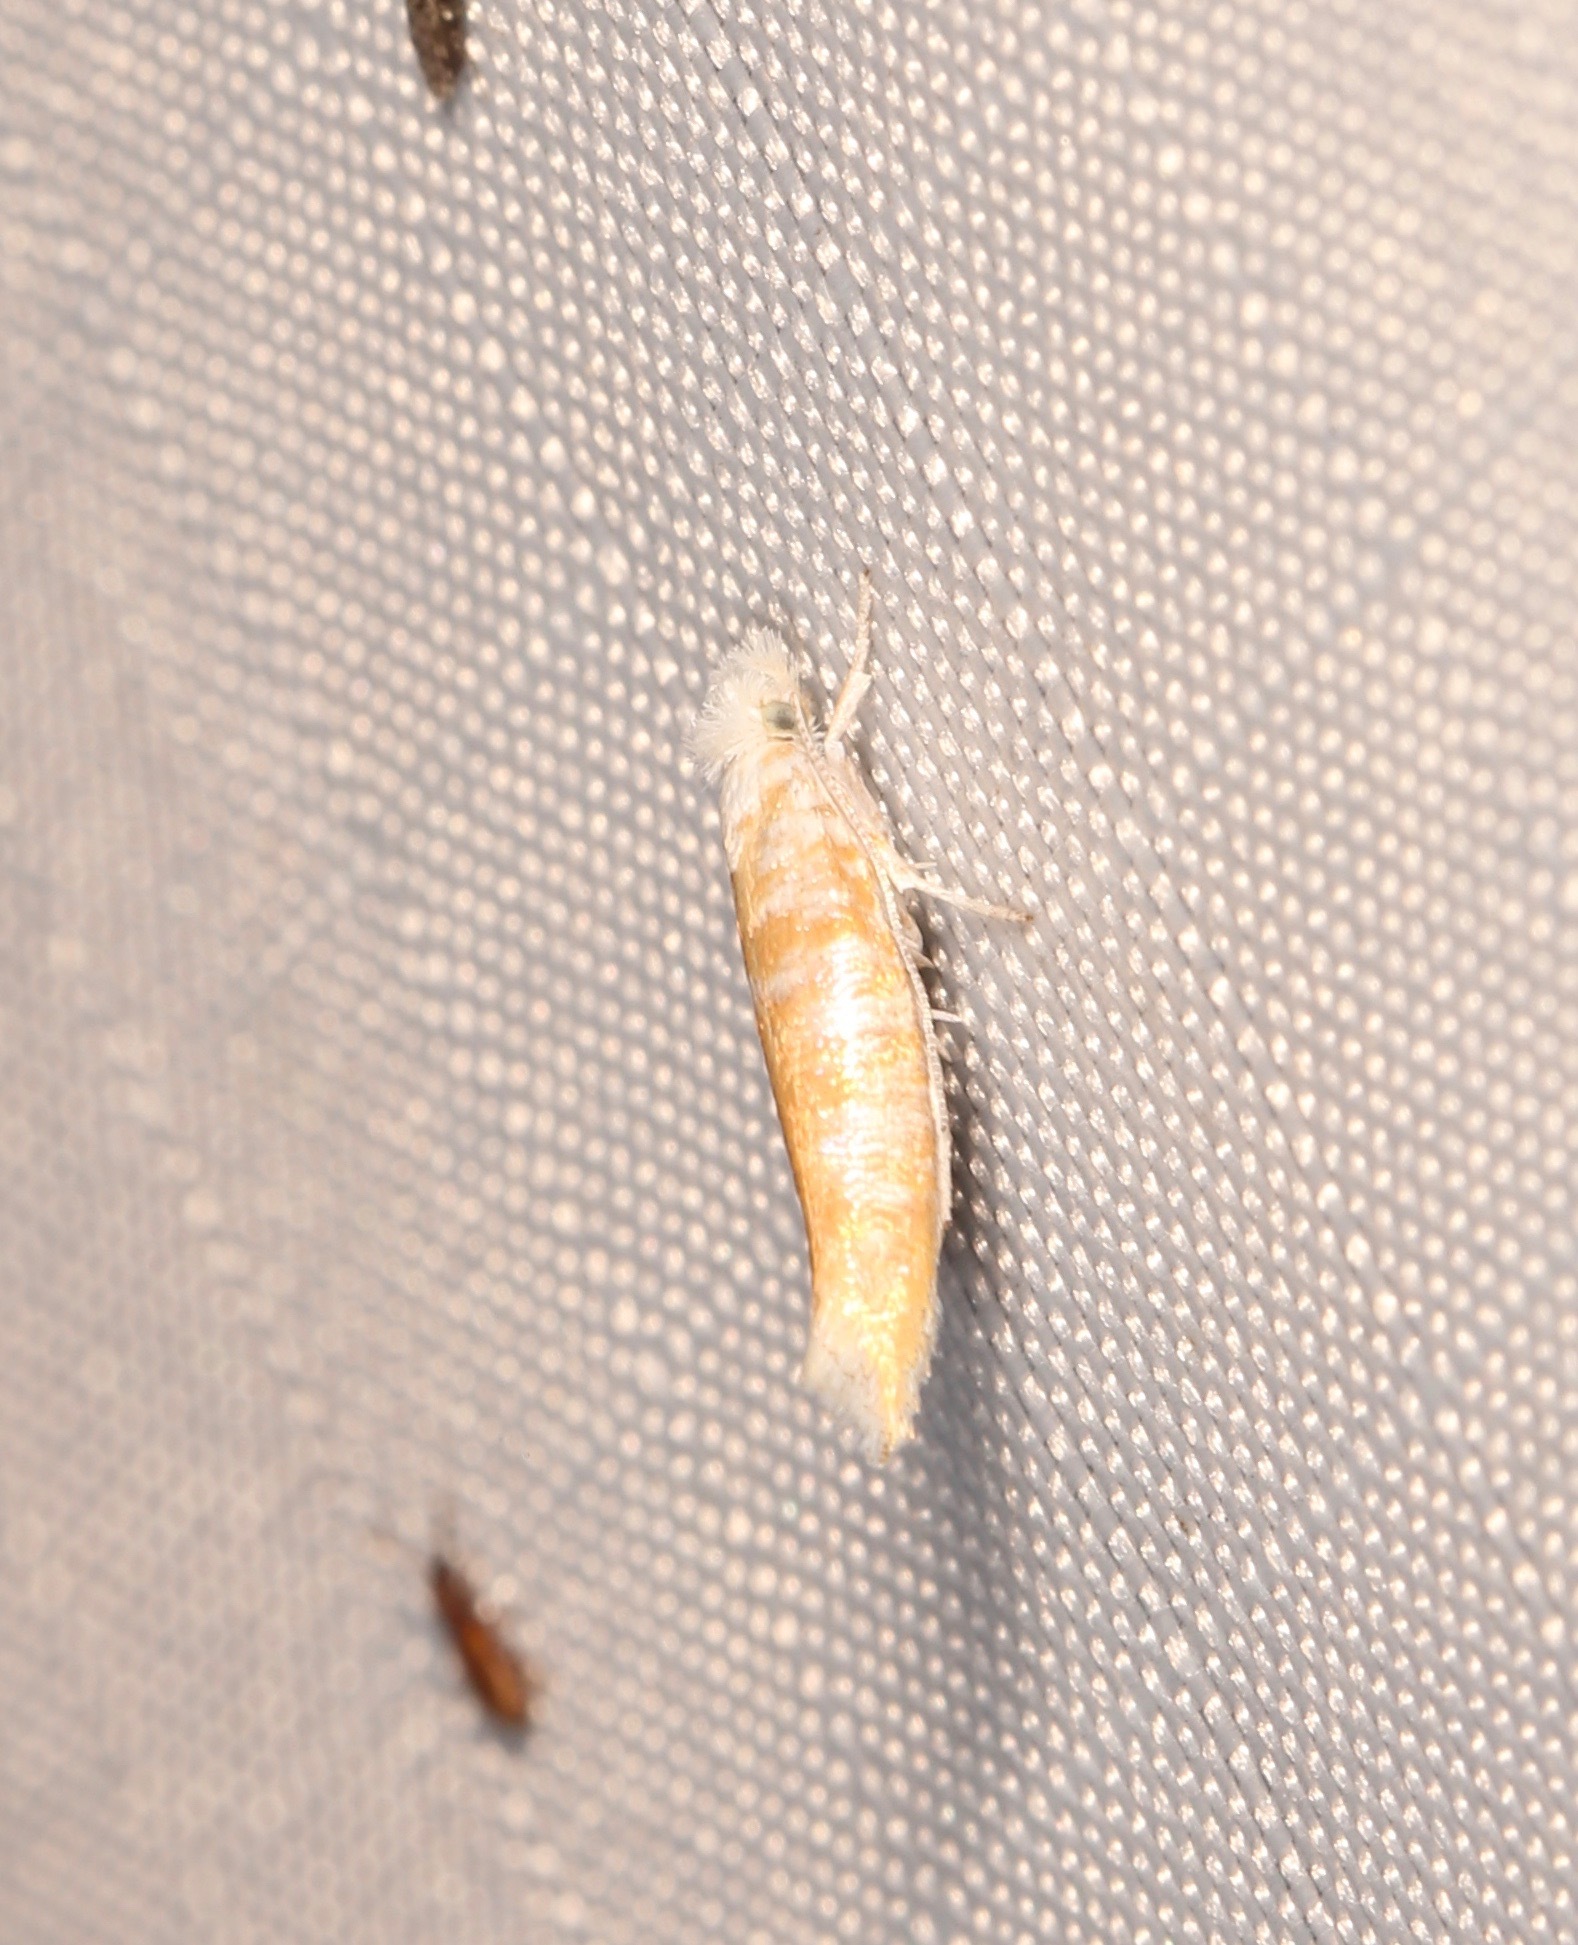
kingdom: Animalia
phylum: Arthropoda
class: Insecta
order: Lepidoptera
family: Yponomeutidae
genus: Zelleria
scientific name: Zelleria retiniella
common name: Brindled zelleria
